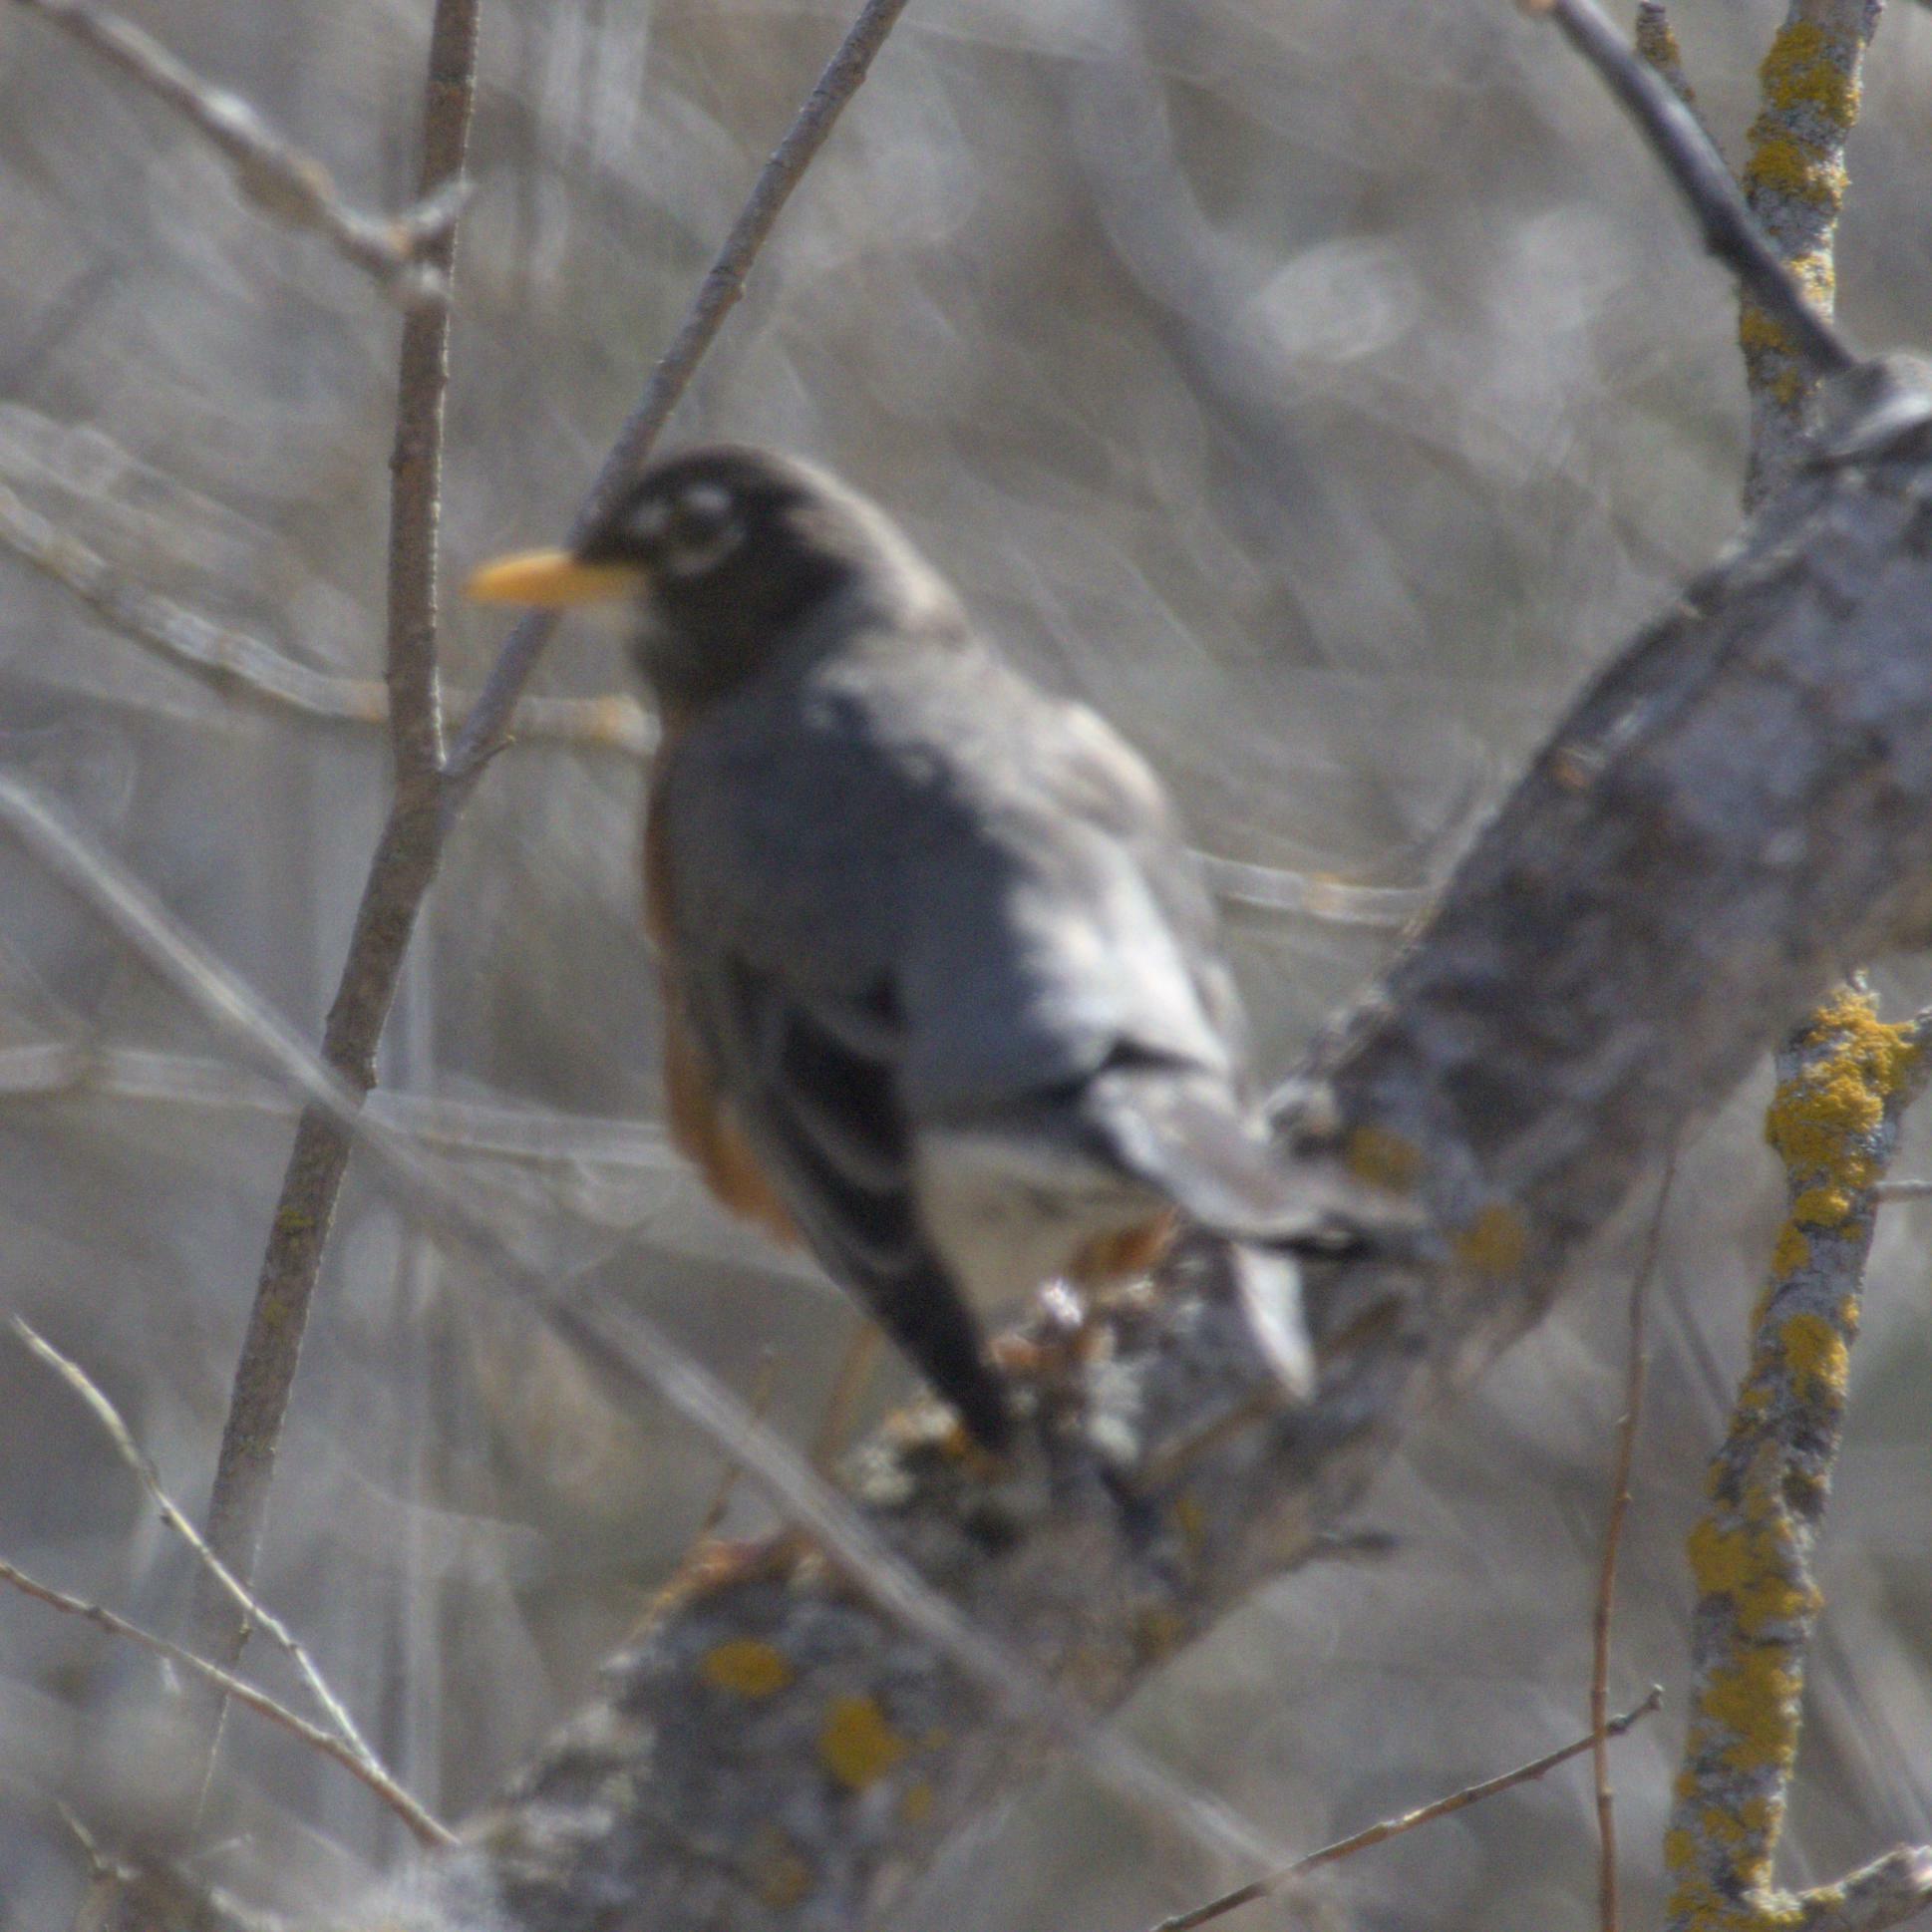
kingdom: Animalia
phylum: Chordata
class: Aves
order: Passeriformes
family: Turdidae
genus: Turdus
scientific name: Turdus migratorius
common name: American robin
